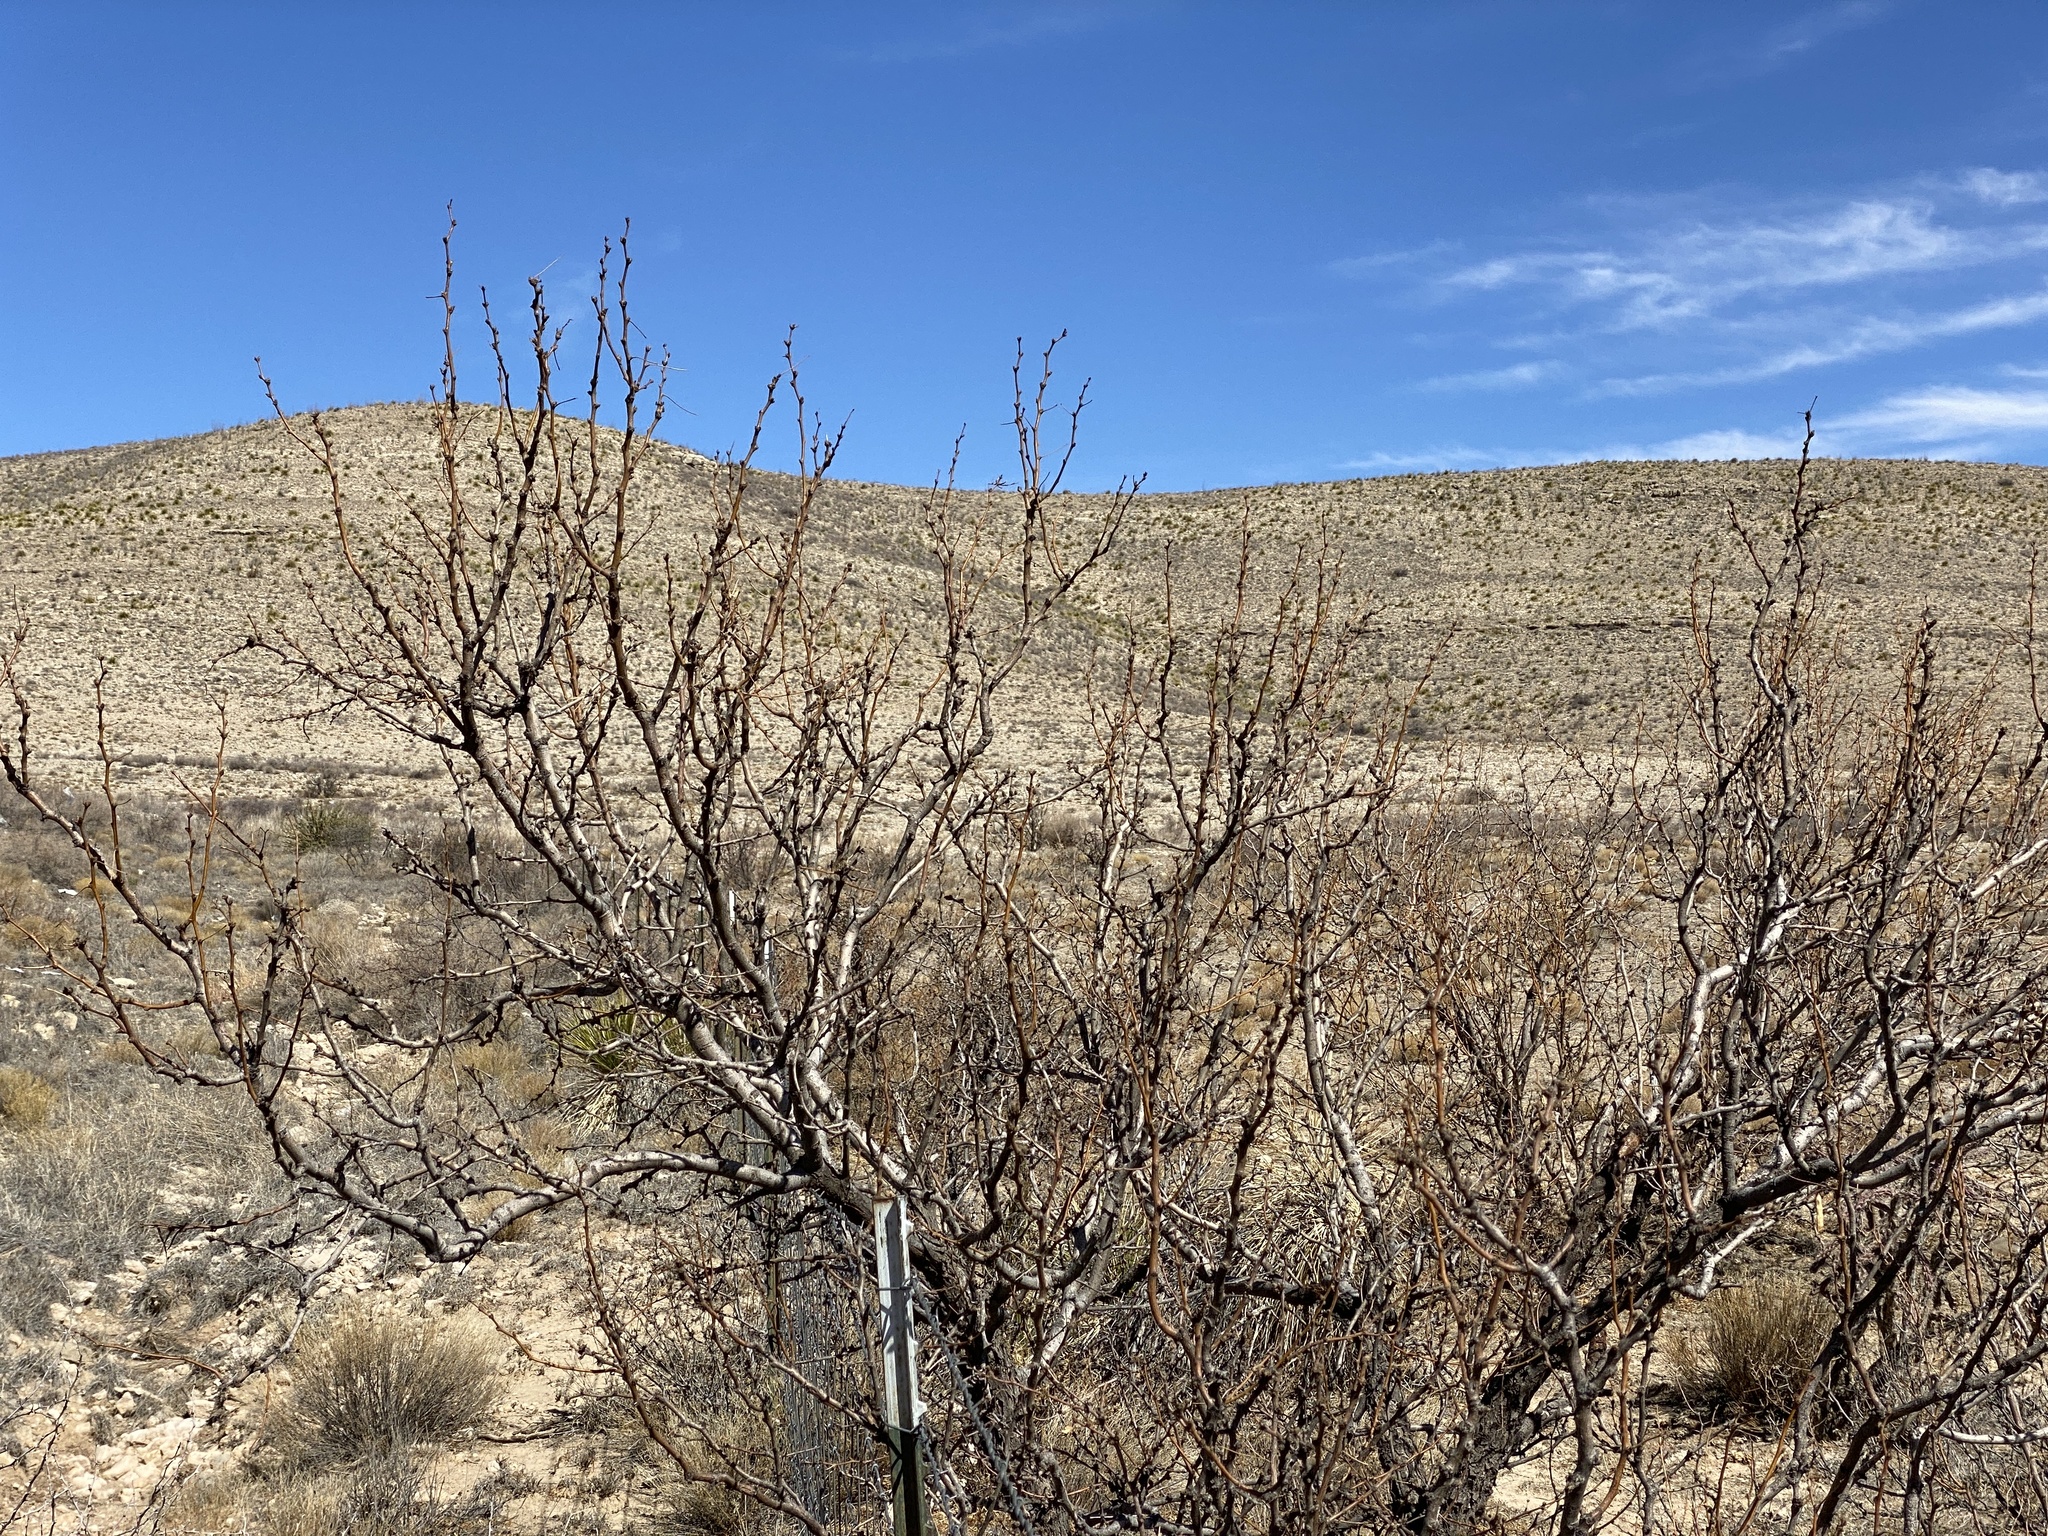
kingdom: Plantae
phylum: Tracheophyta
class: Magnoliopsida
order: Fabales
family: Fabaceae
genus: Prosopis
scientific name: Prosopis glandulosa
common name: Honey mesquite
